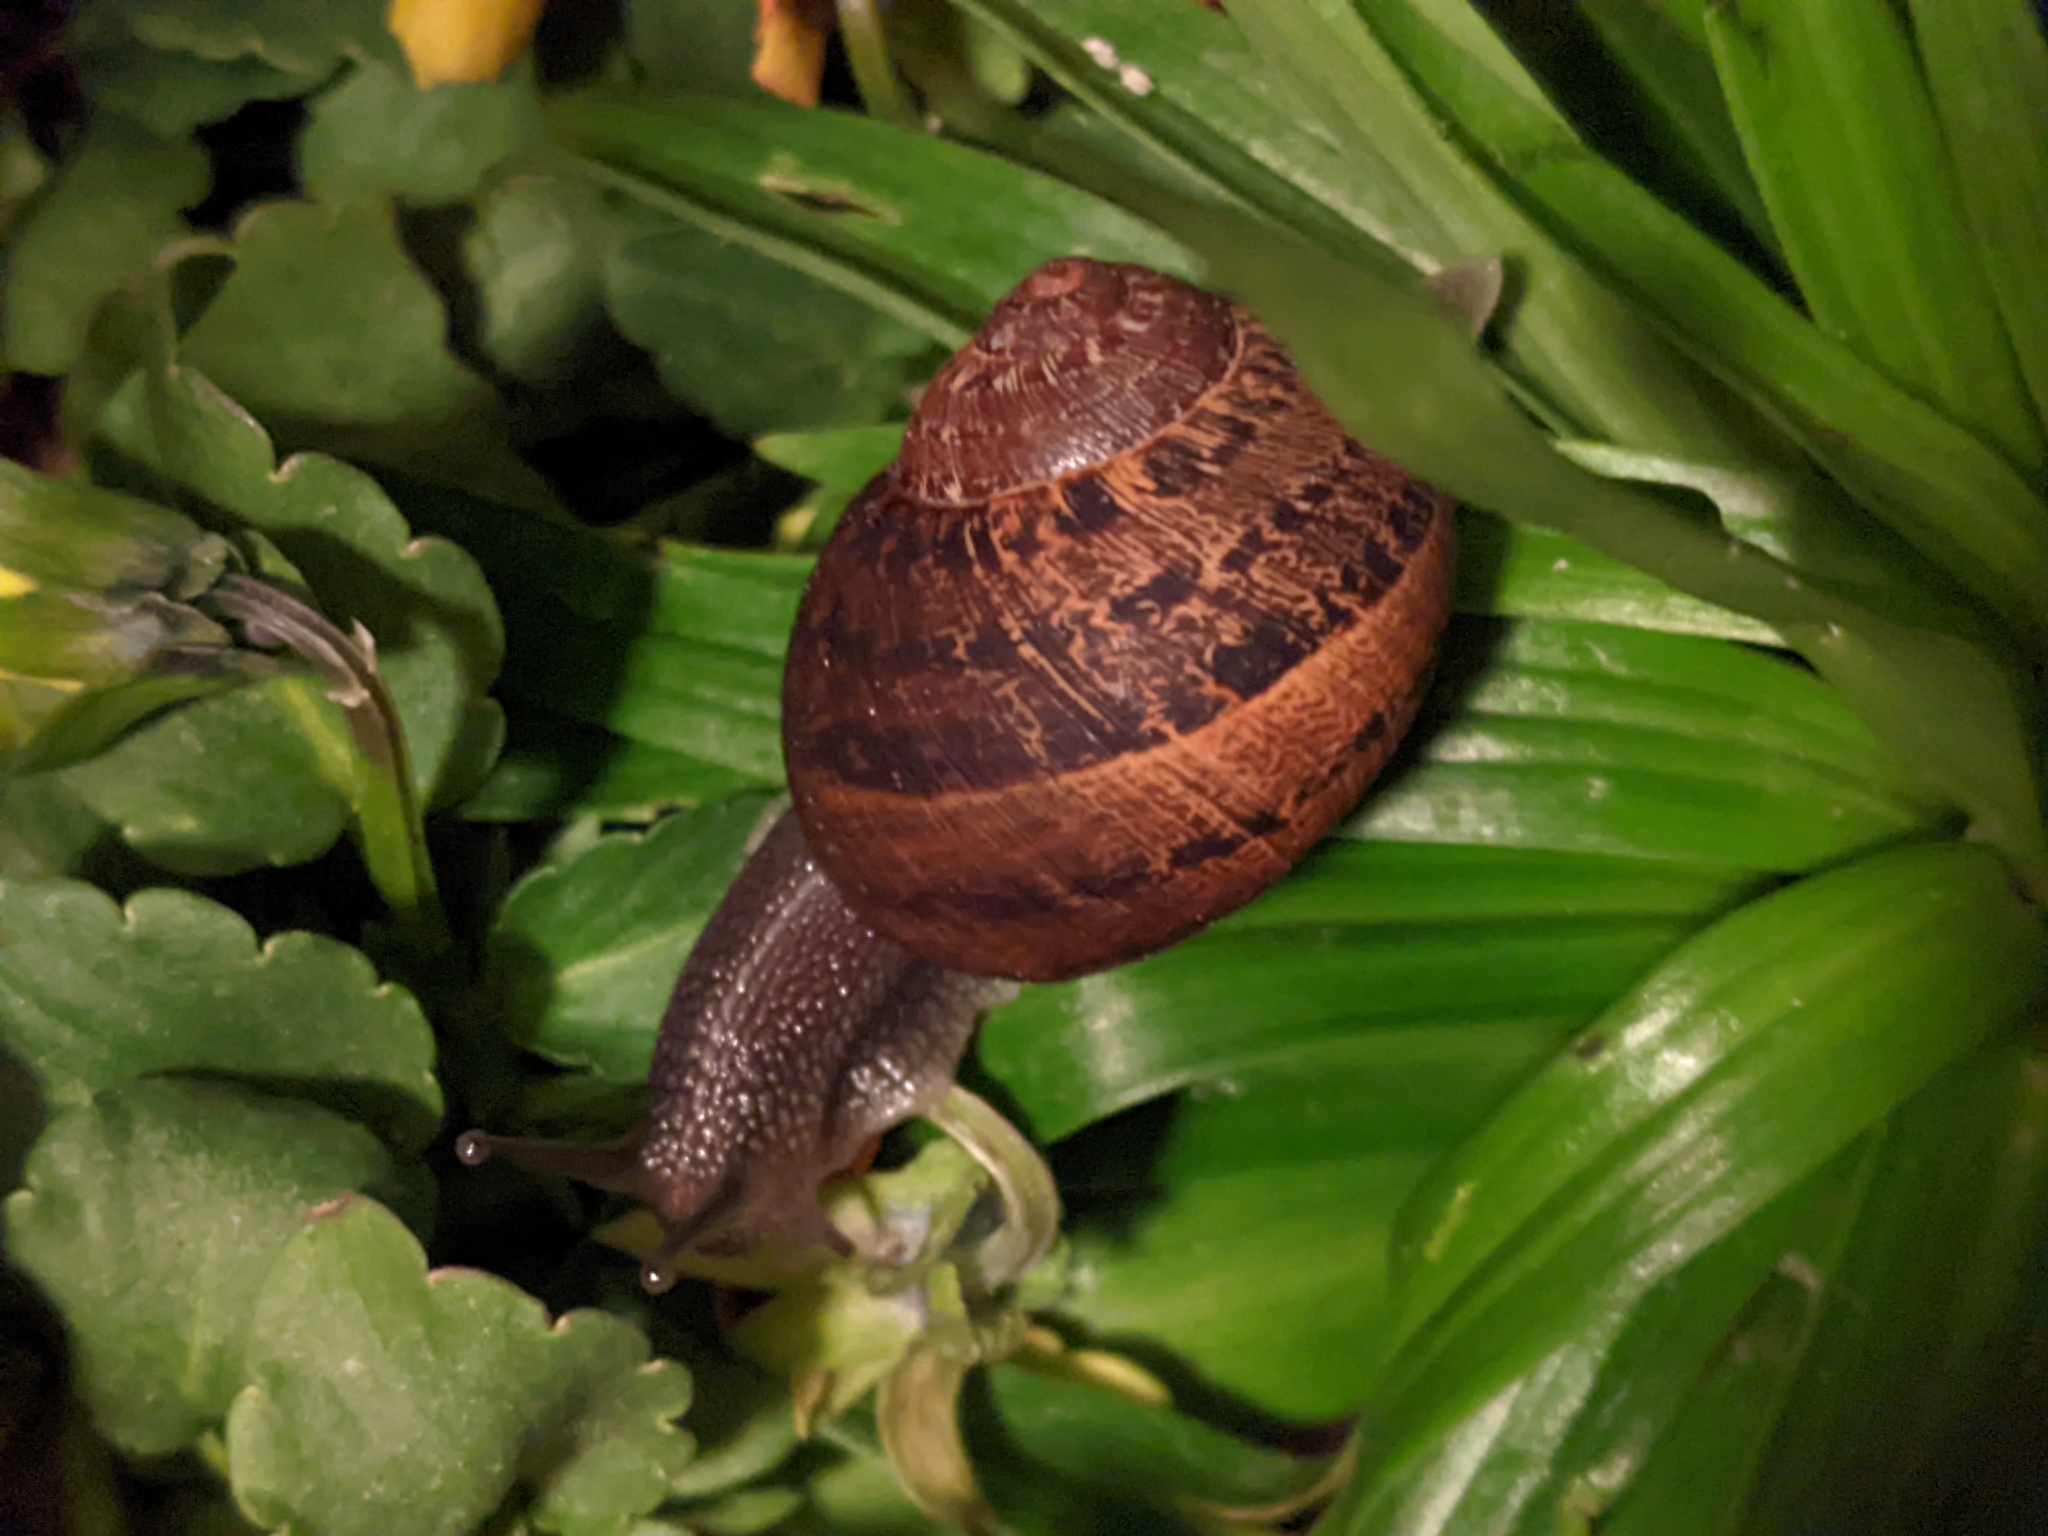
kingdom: Animalia
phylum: Mollusca
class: Gastropoda
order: Stylommatophora
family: Helicidae
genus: Cornu
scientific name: Cornu aspersum
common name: Brown garden snail
